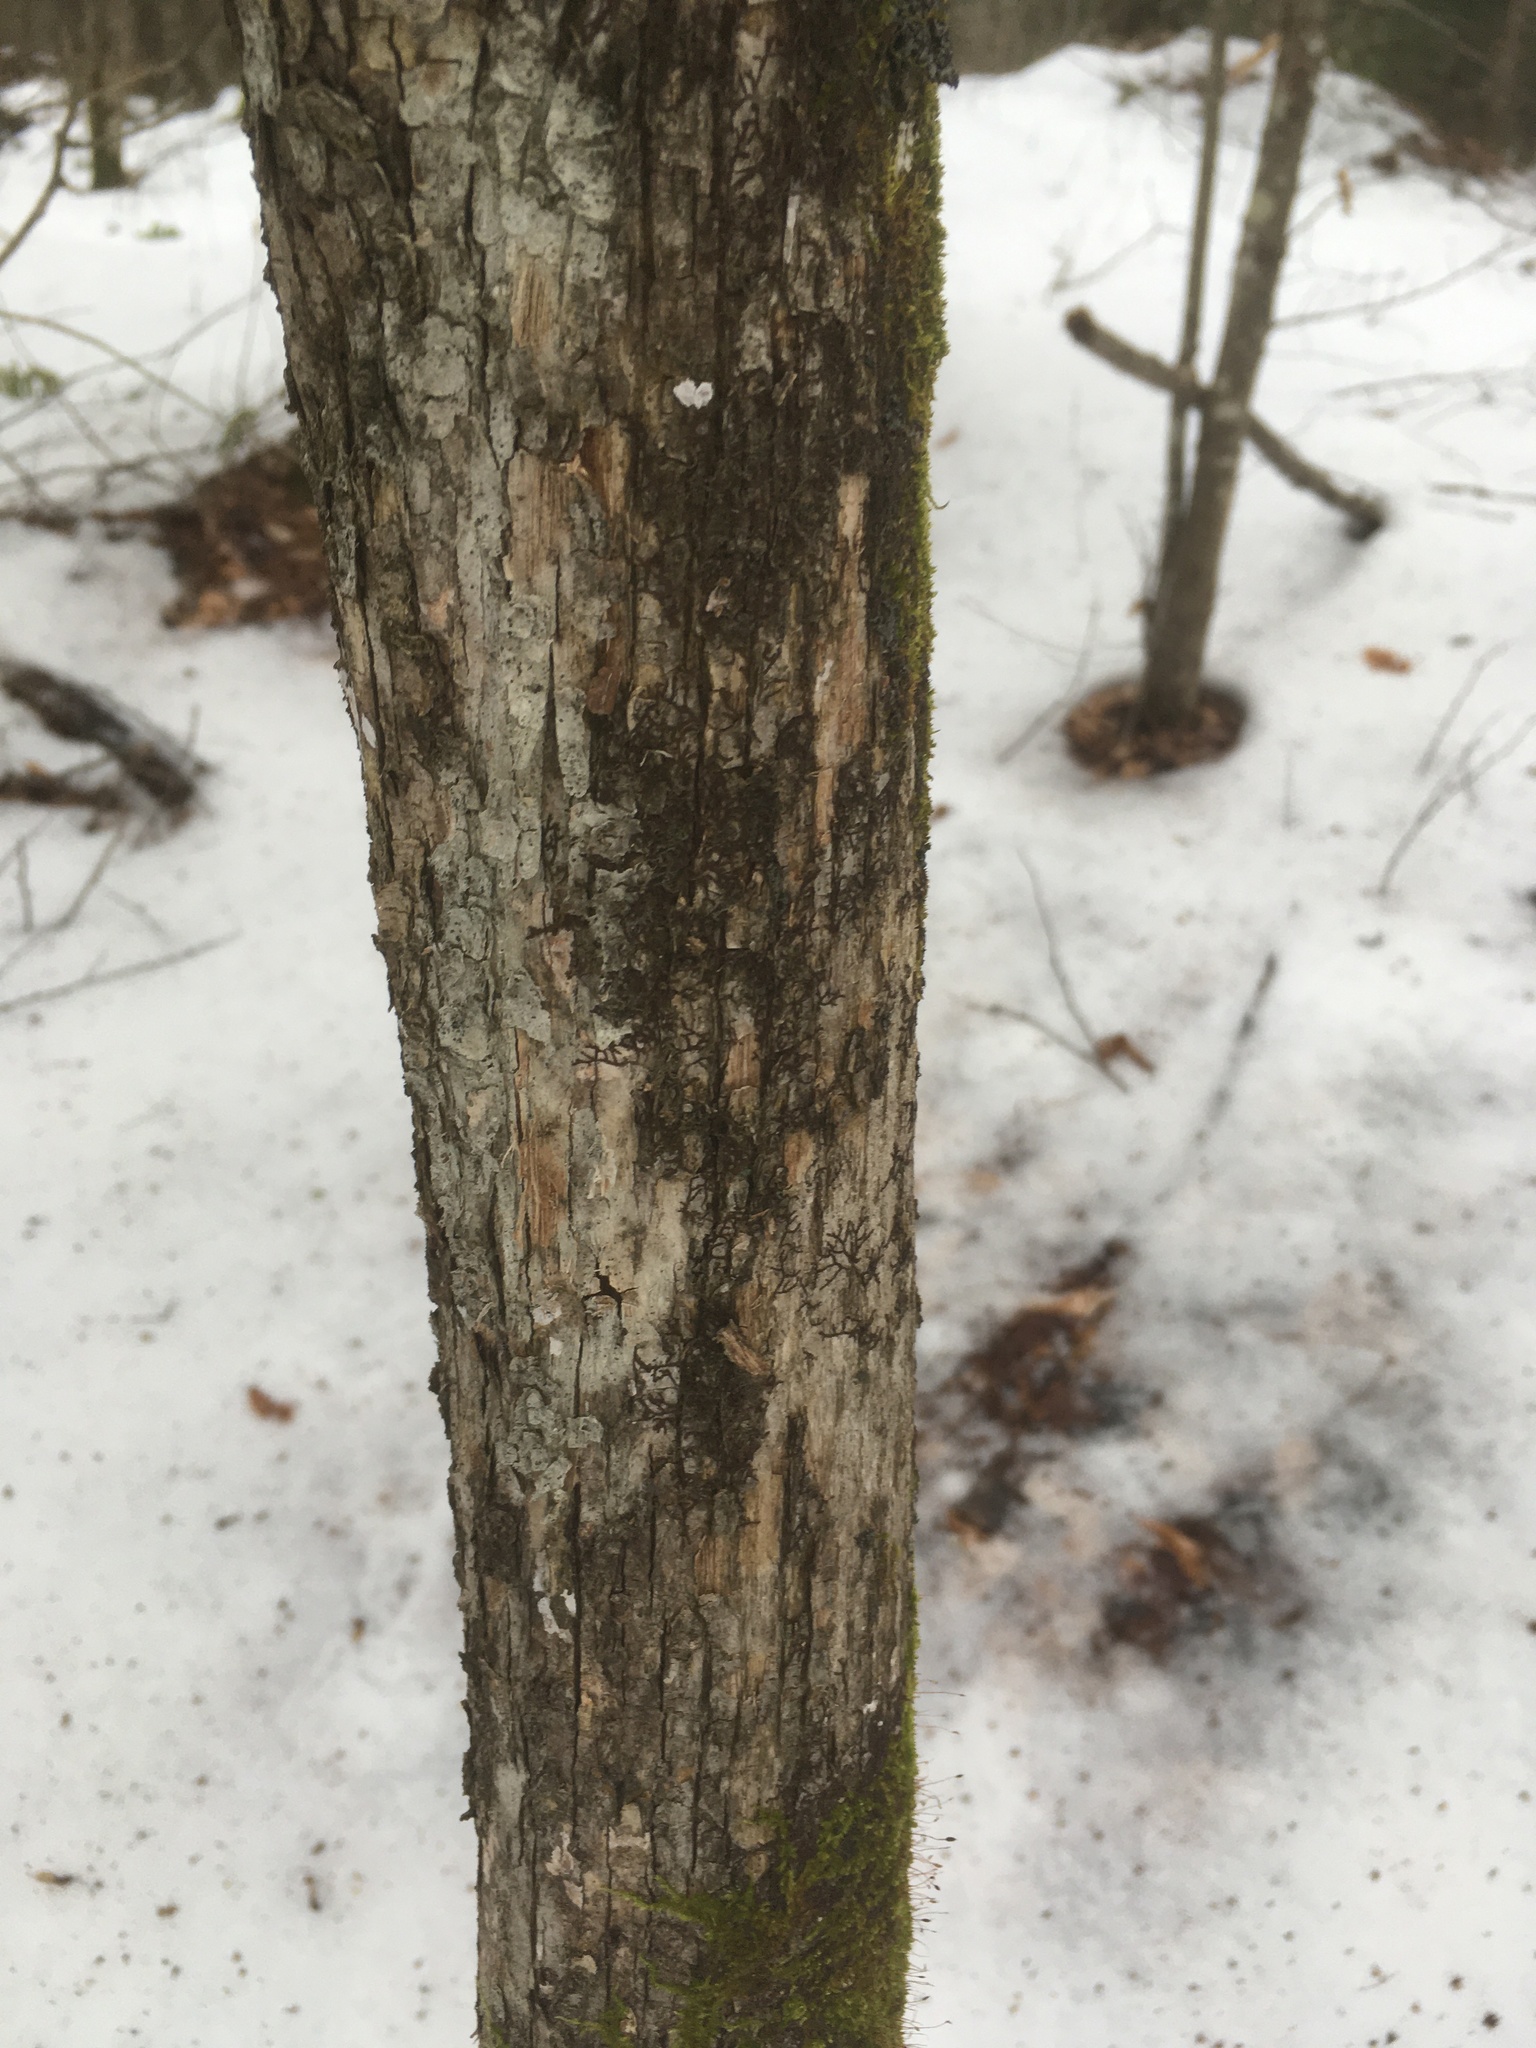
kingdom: Plantae
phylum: Tracheophyta
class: Magnoliopsida
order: Fagales
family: Betulaceae
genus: Ostrya
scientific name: Ostrya virginiana
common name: Ironwood
